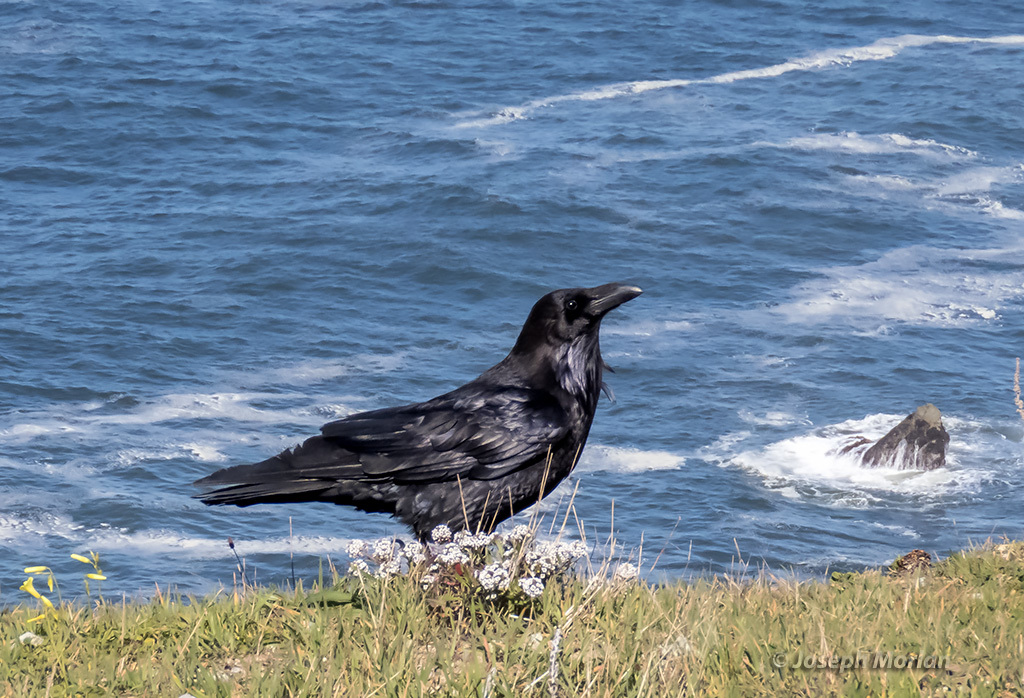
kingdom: Animalia
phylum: Chordata
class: Aves
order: Passeriformes
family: Corvidae
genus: Corvus
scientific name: Corvus corax
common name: Common raven
